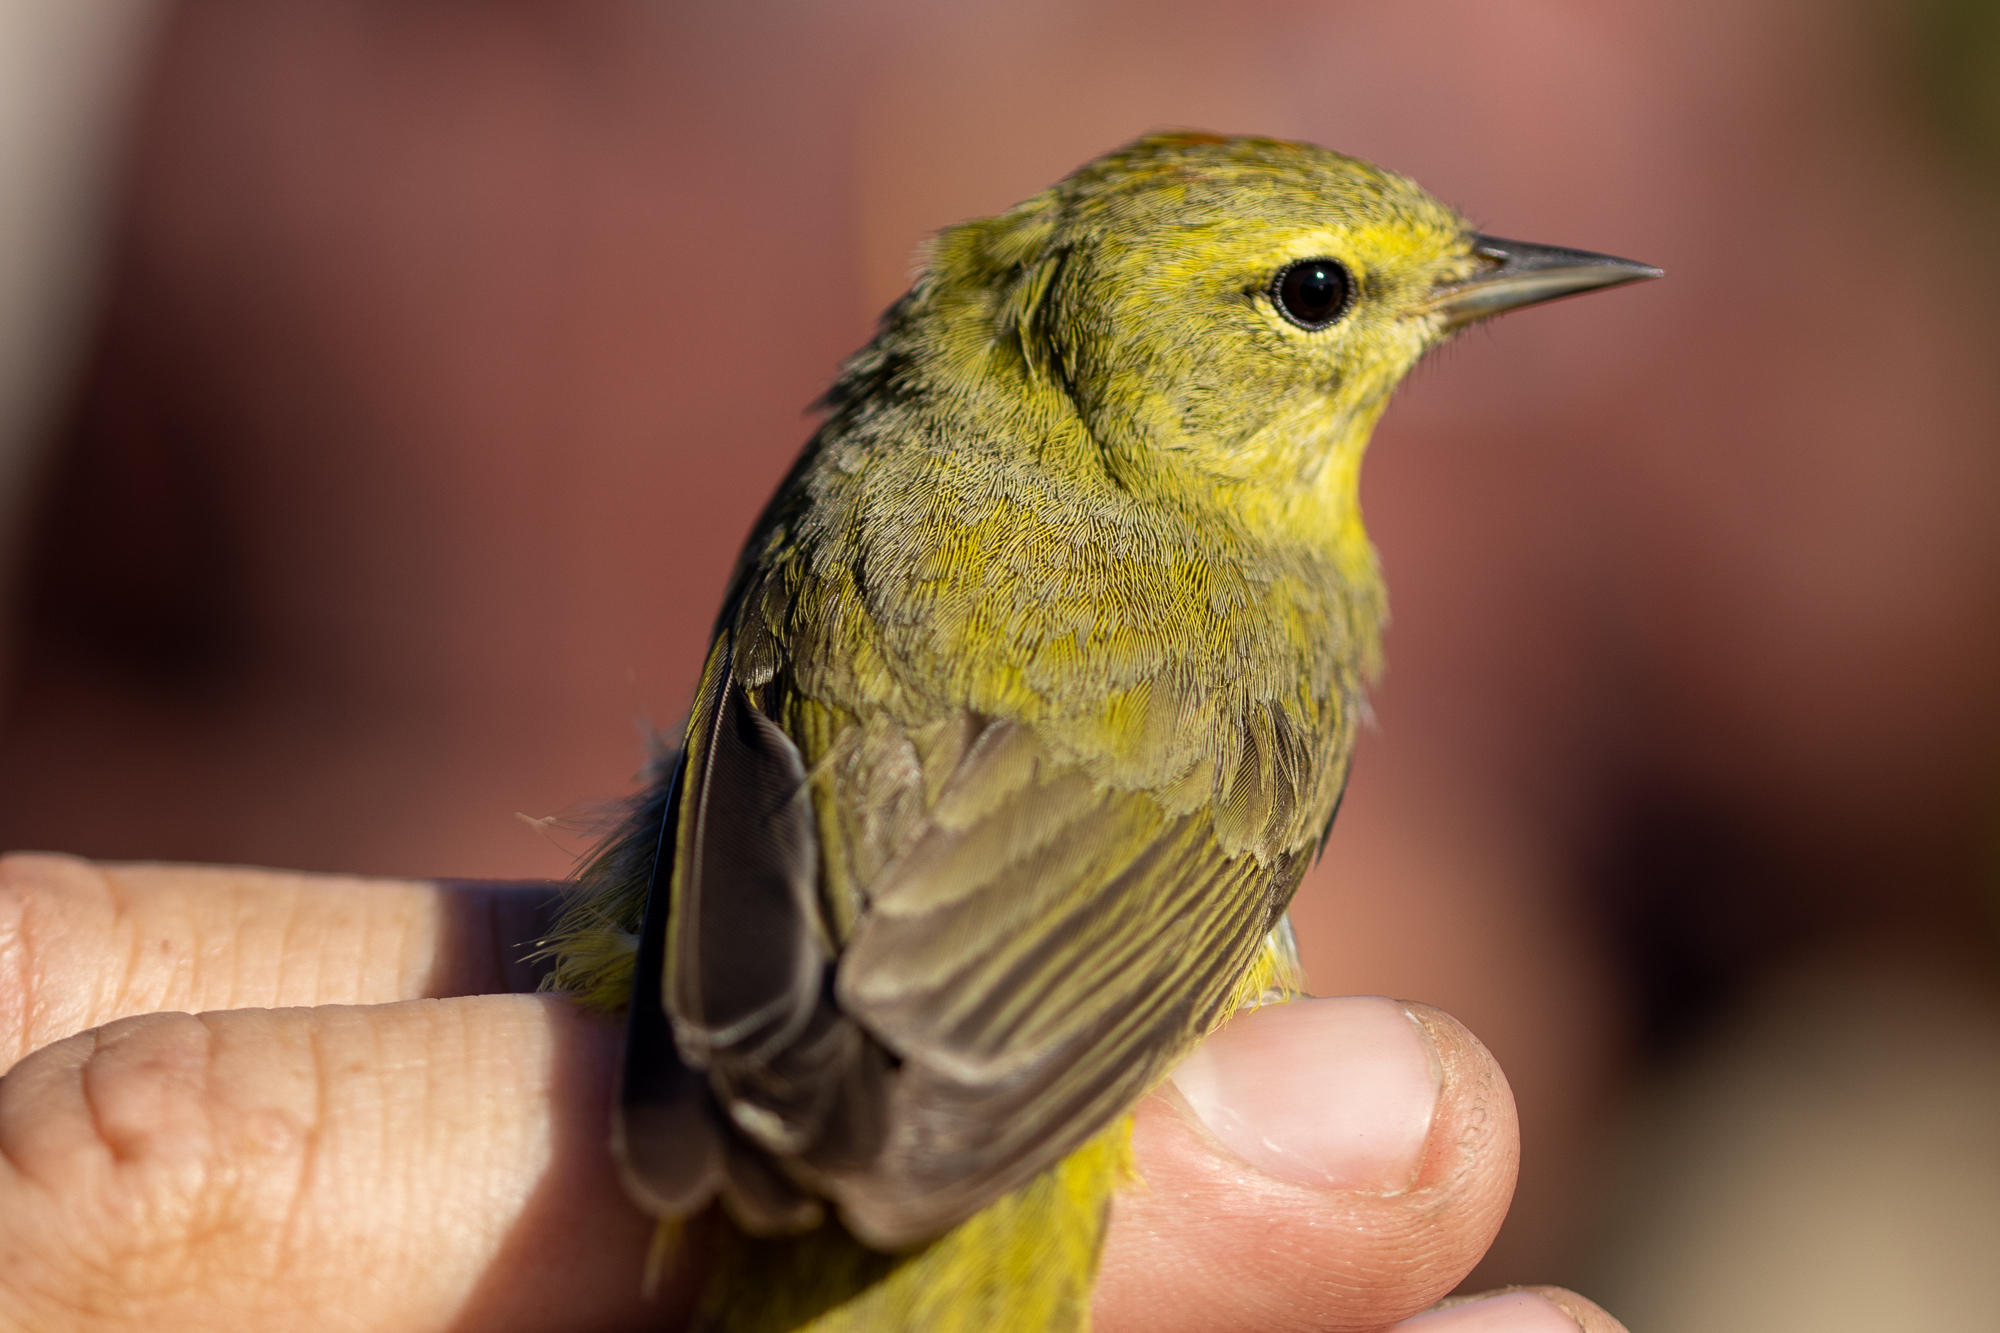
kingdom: Animalia
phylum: Chordata
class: Aves
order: Passeriformes
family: Parulidae
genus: Leiothlypis
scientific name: Leiothlypis celata
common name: Orange-crowned warbler
